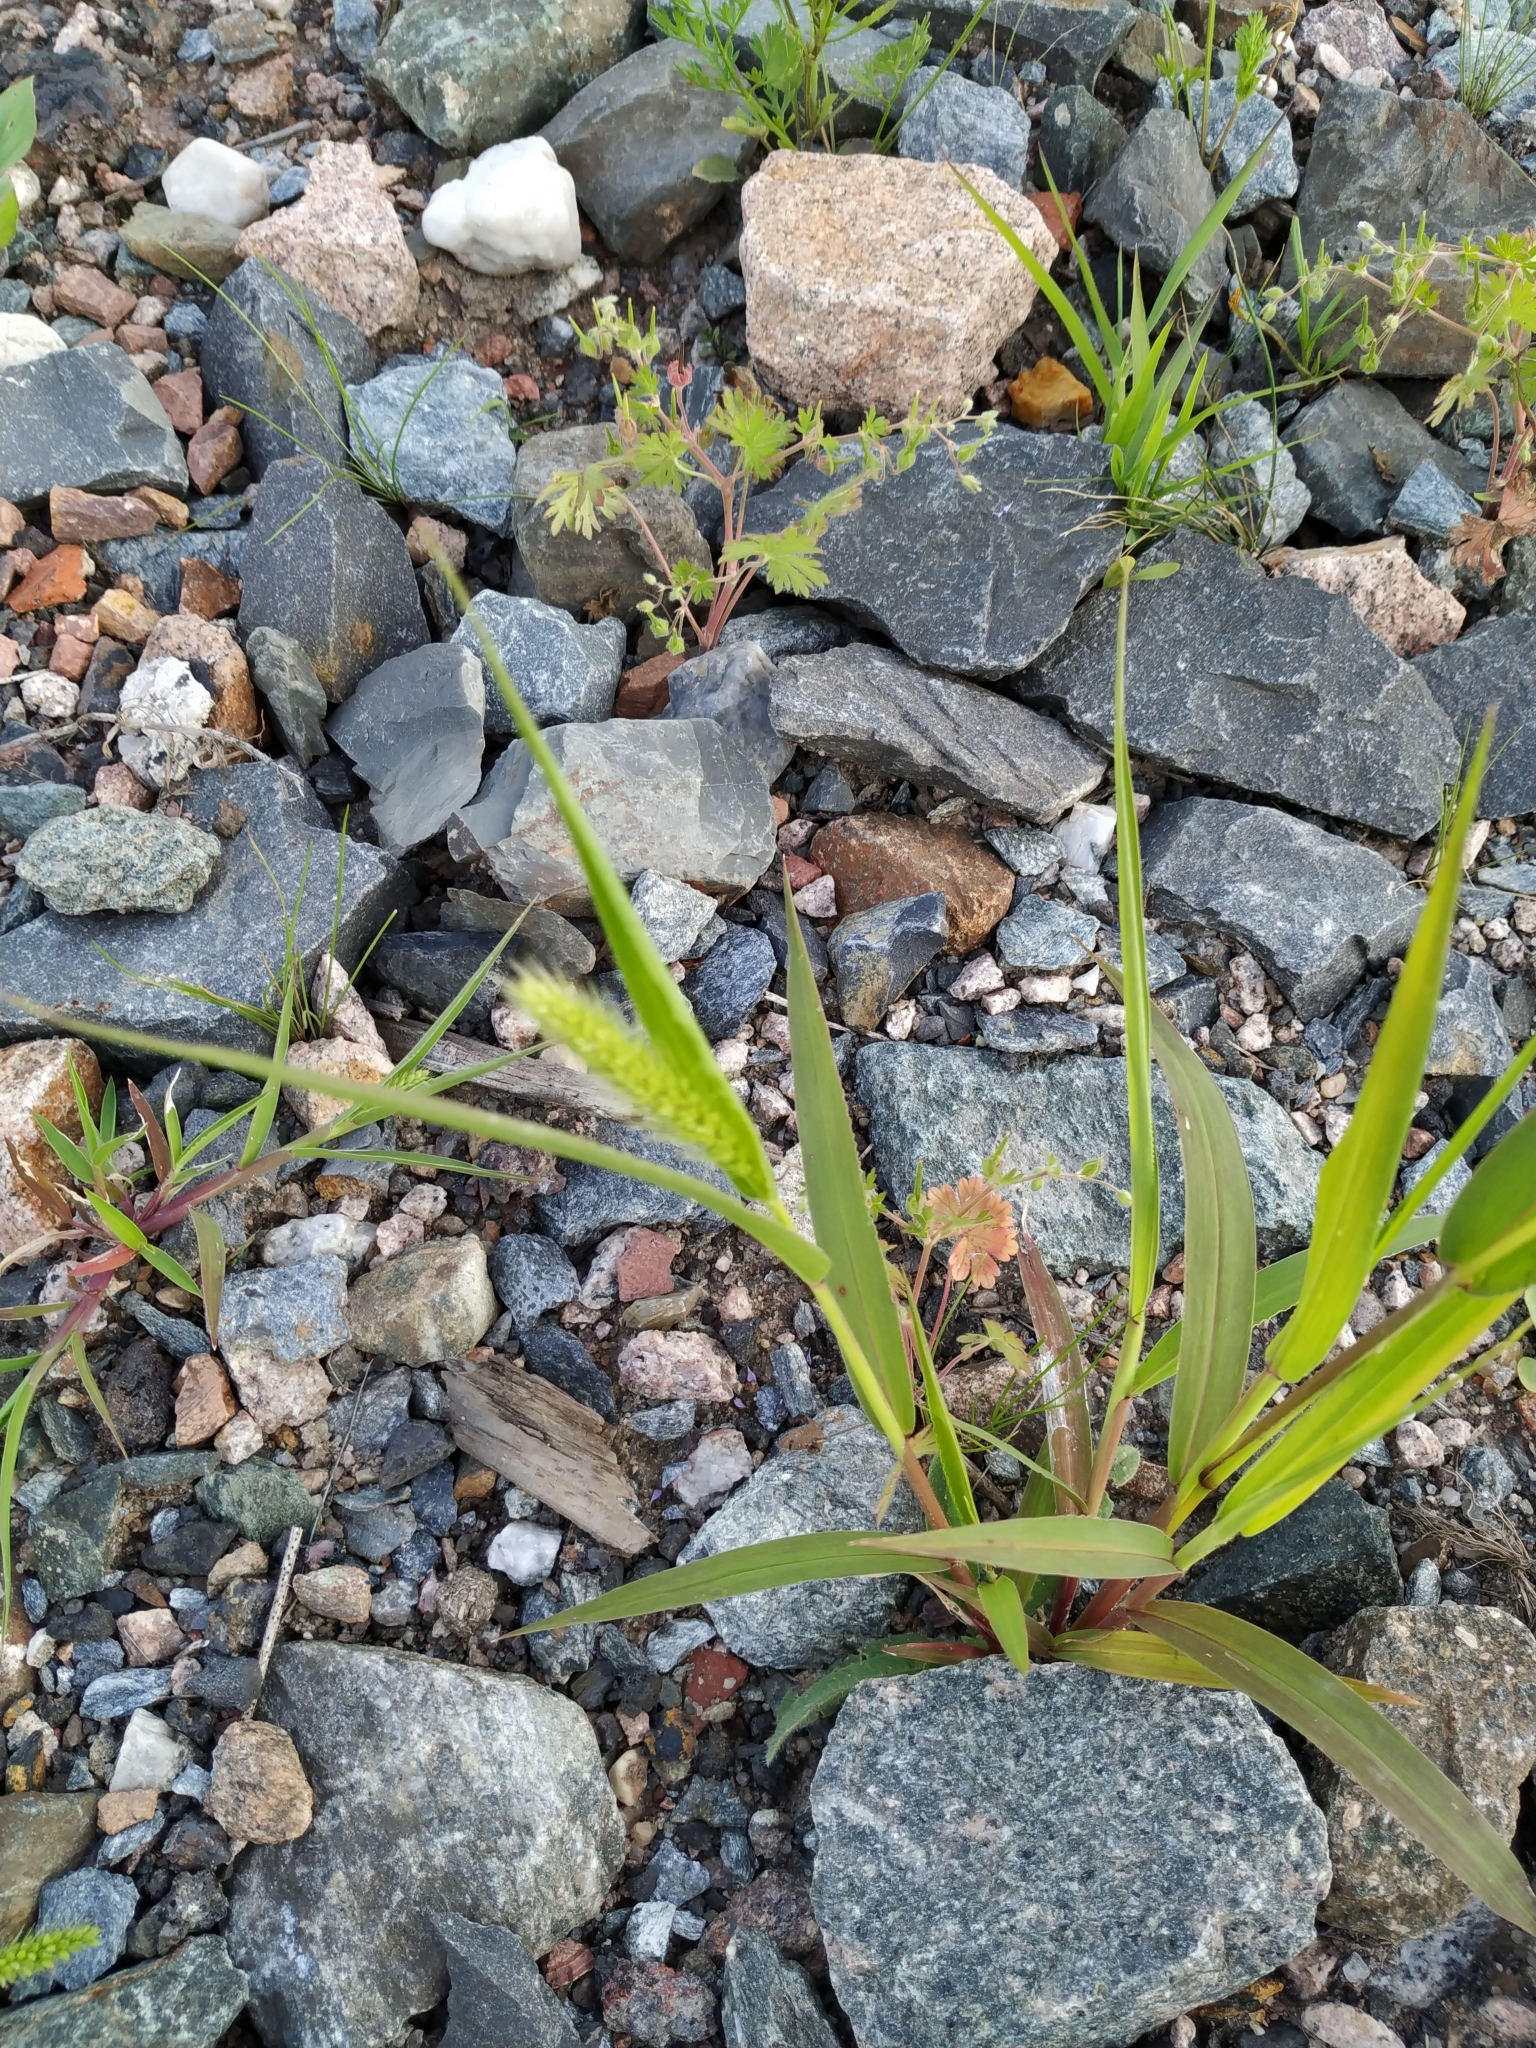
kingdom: Plantae
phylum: Tracheophyta
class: Liliopsida
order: Poales
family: Poaceae
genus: Setaria
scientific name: Setaria viridis
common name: Green bristlegrass
